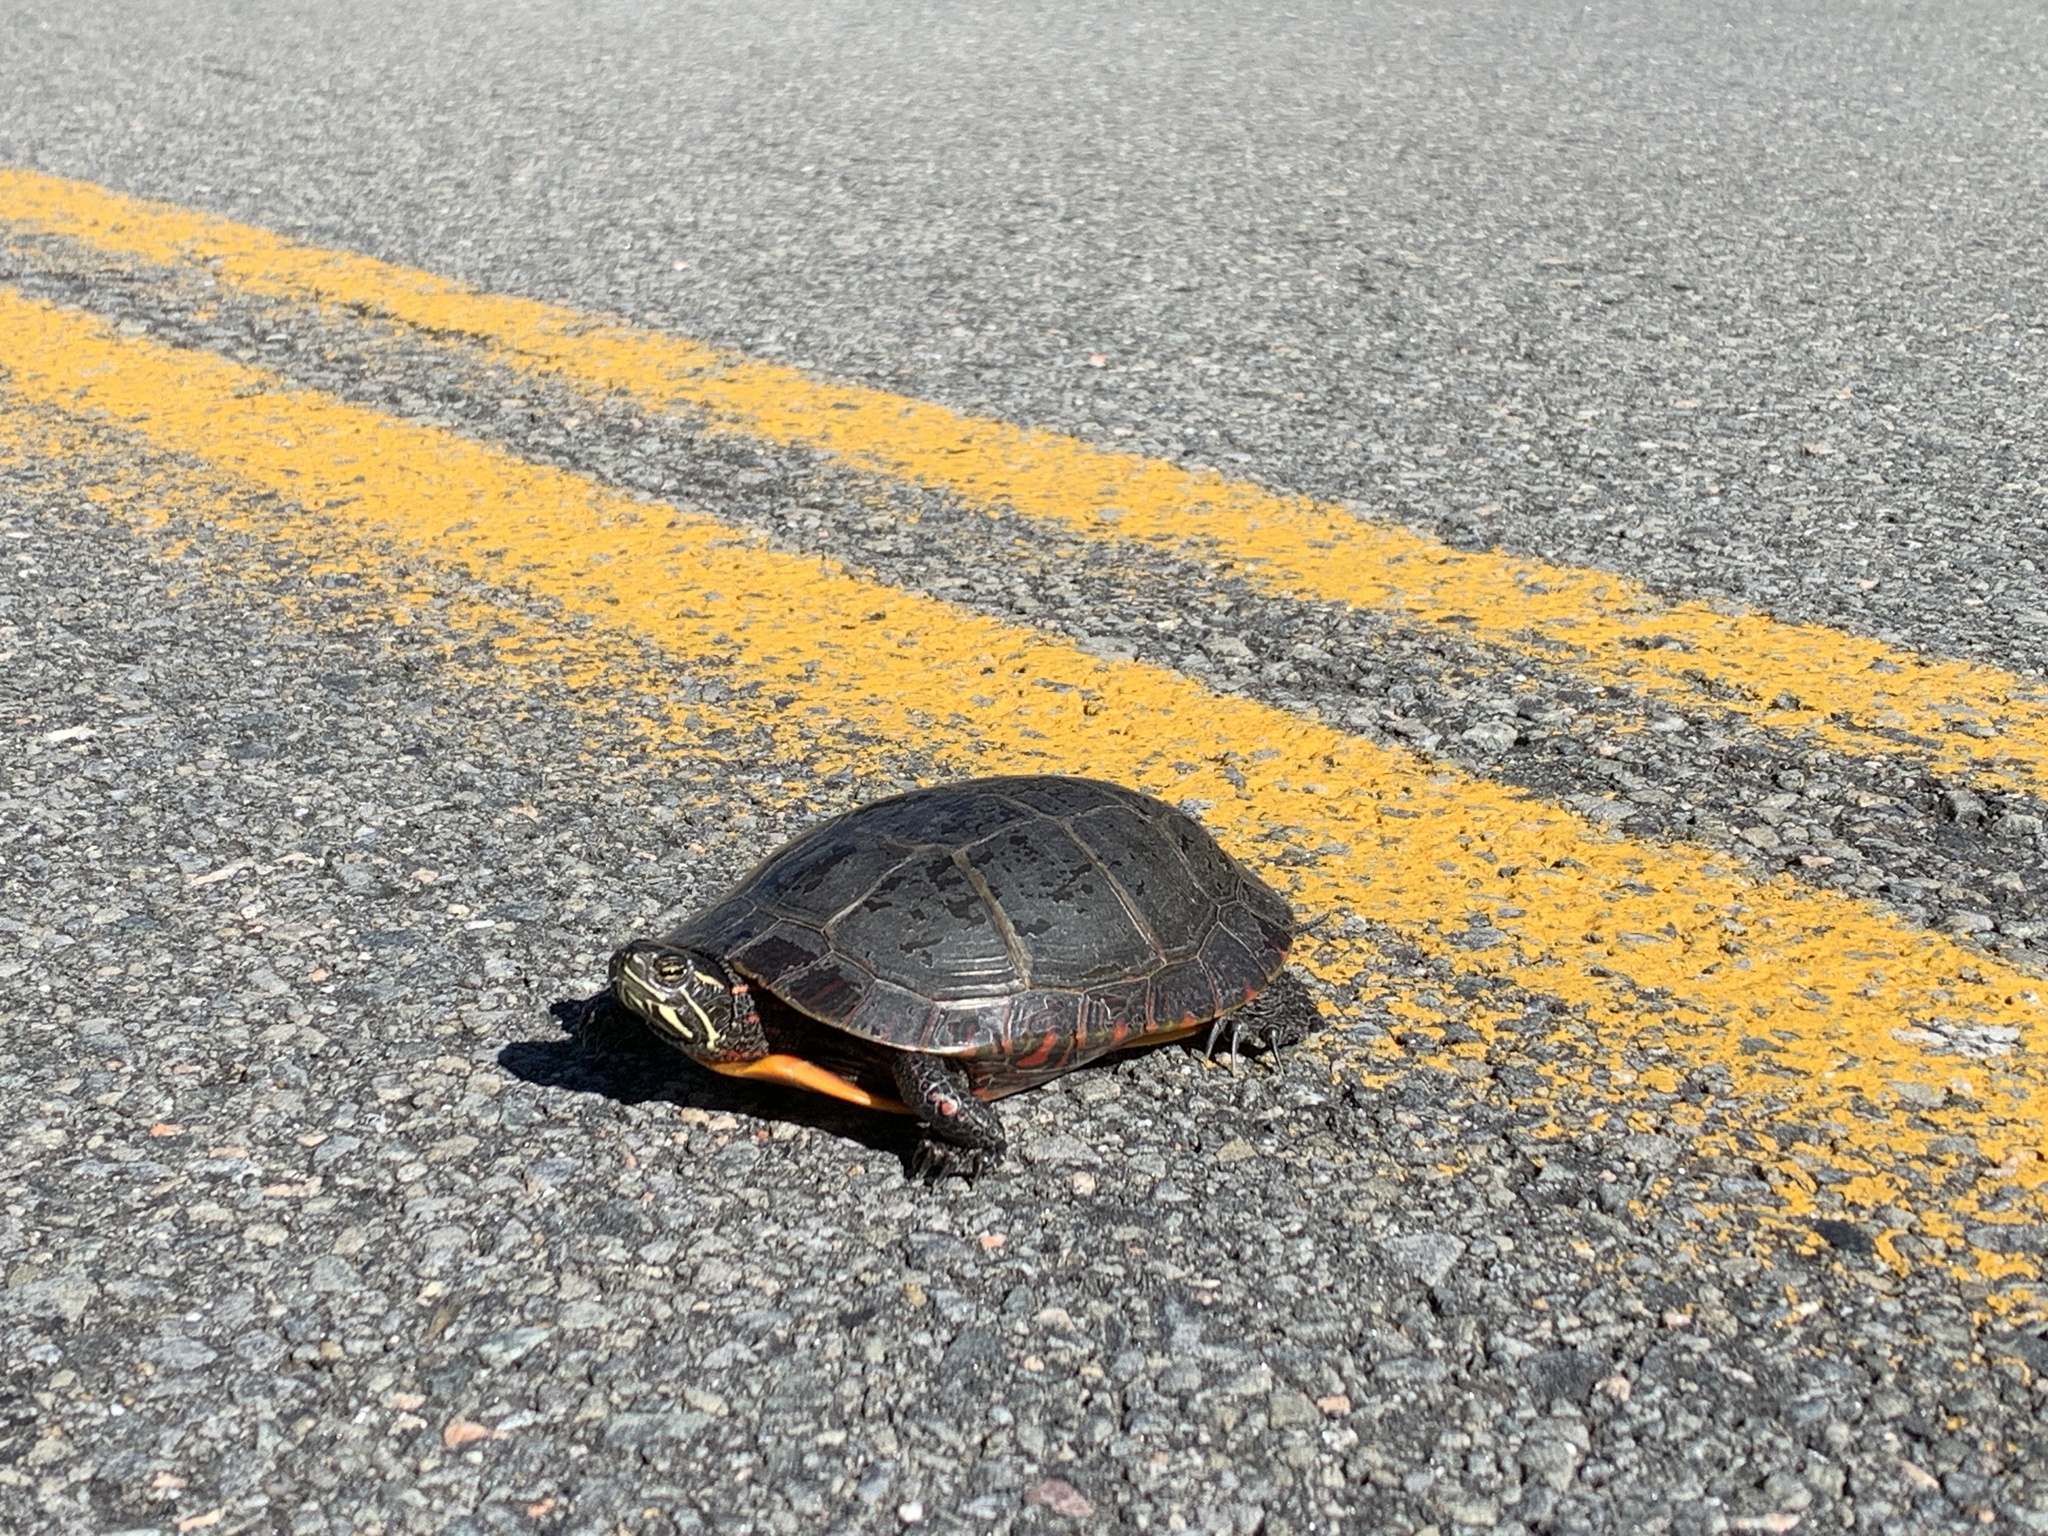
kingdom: Animalia
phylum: Chordata
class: Testudines
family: Emydidae
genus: Chrysemys
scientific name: Chrysemys picta
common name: Painted turtle
